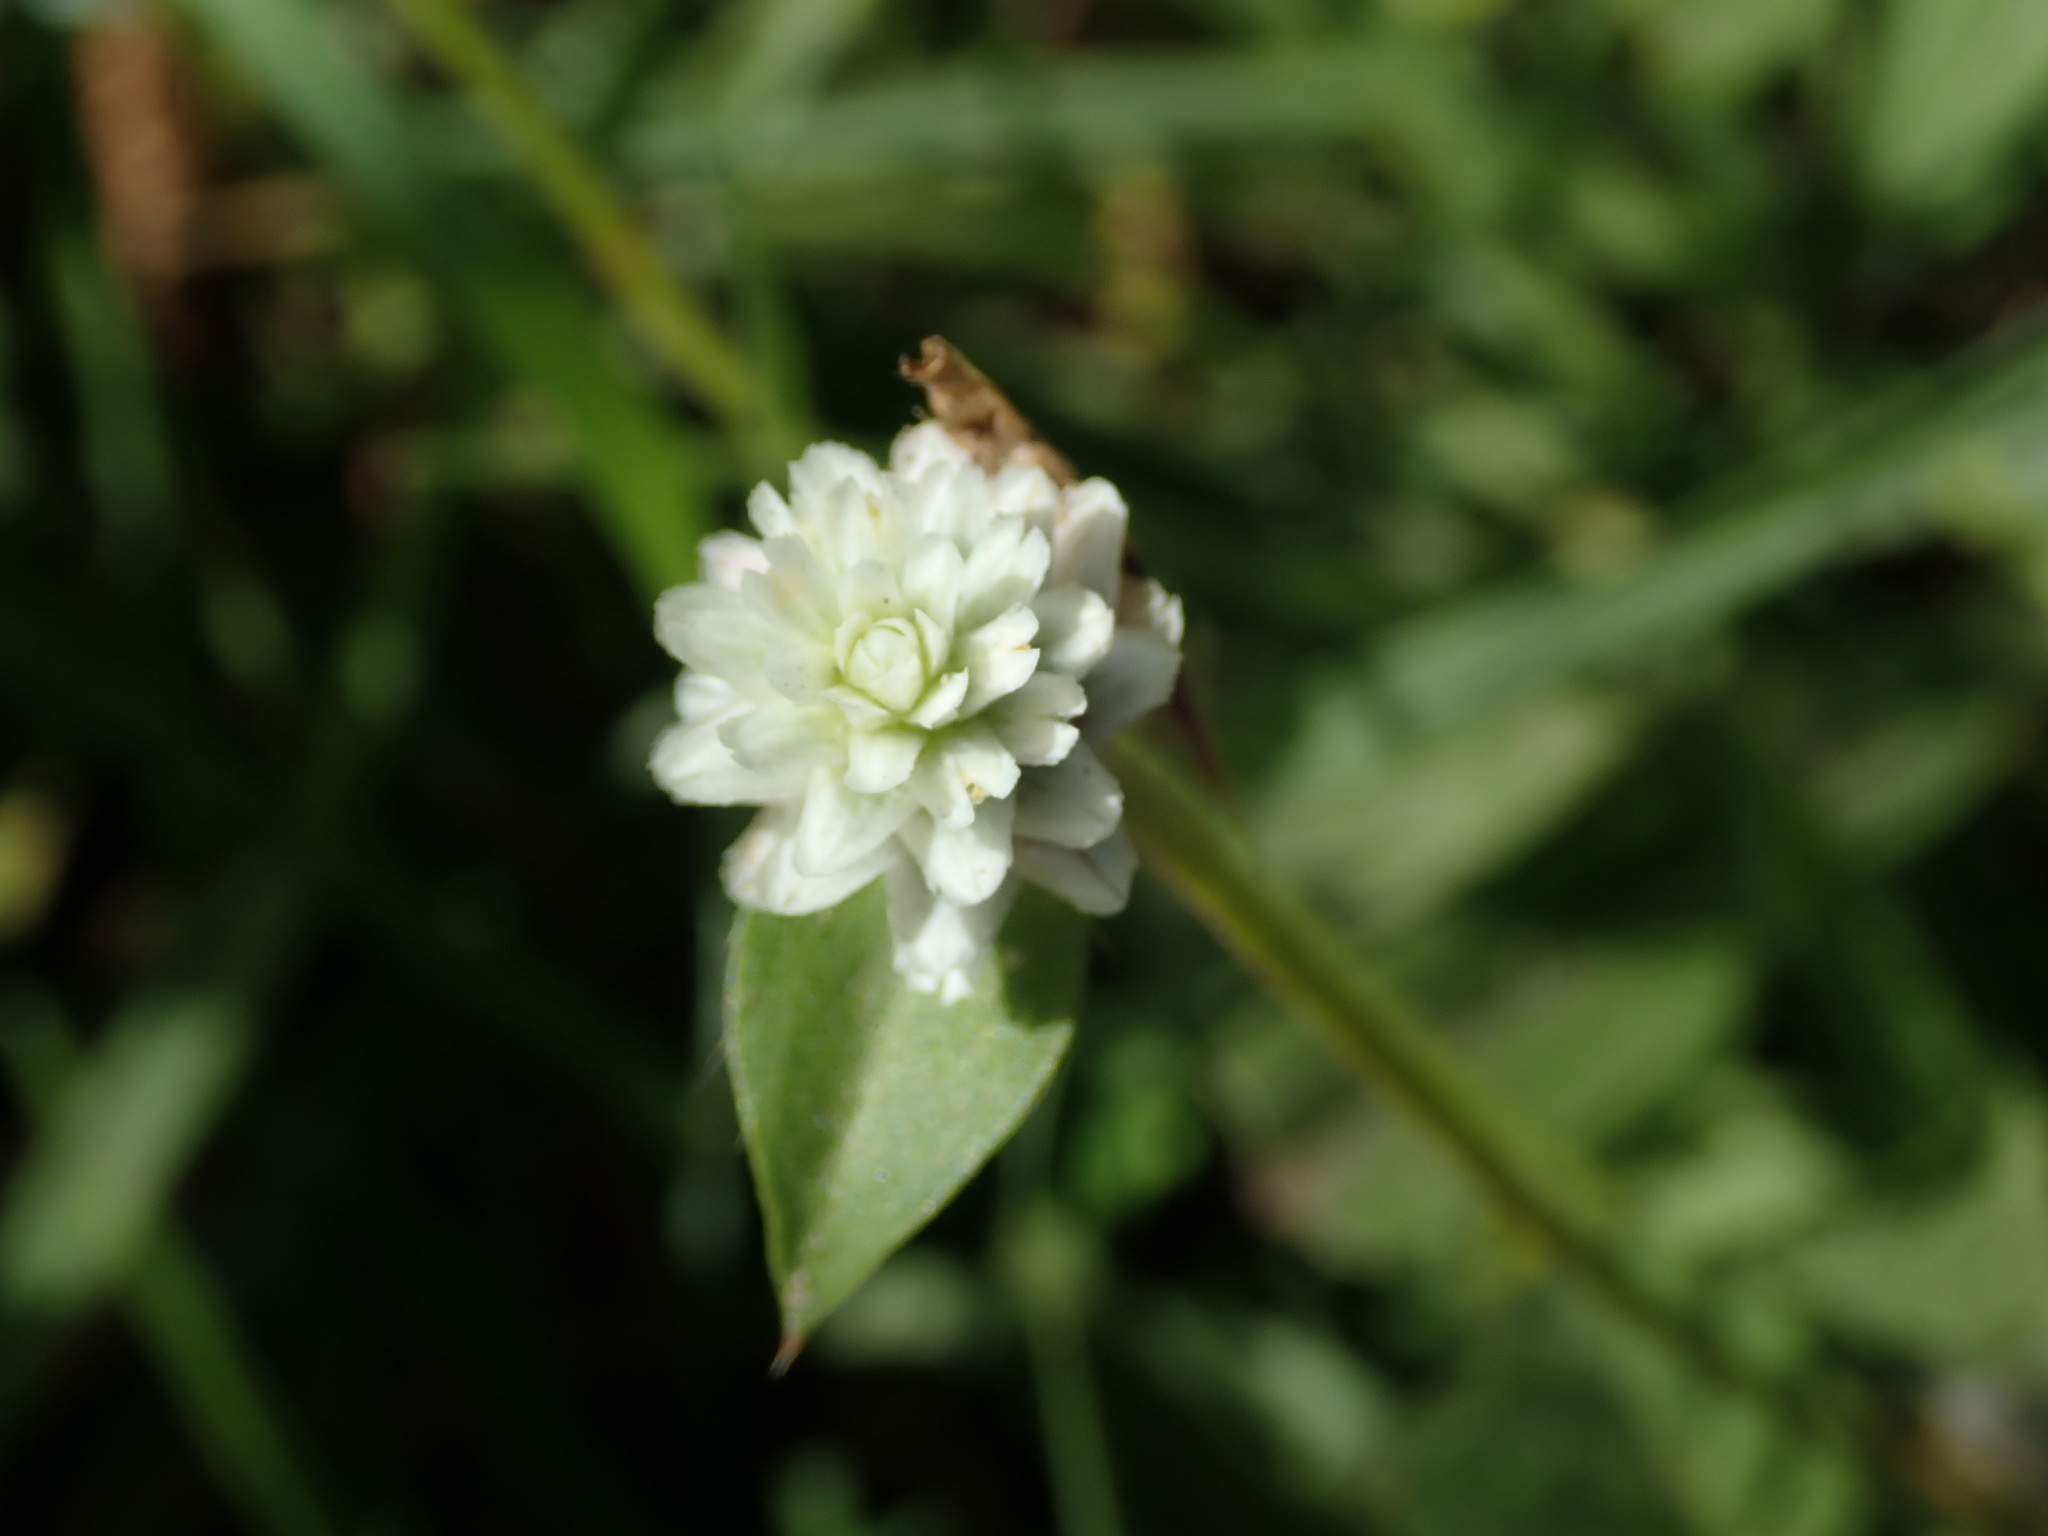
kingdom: Plantae
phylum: Tracheophyta
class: Magnoliopsida
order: Caryophyllales
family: Amaranthaceae
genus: Gomphrena
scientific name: Gomphrena serrata
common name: Arrasa con todo
